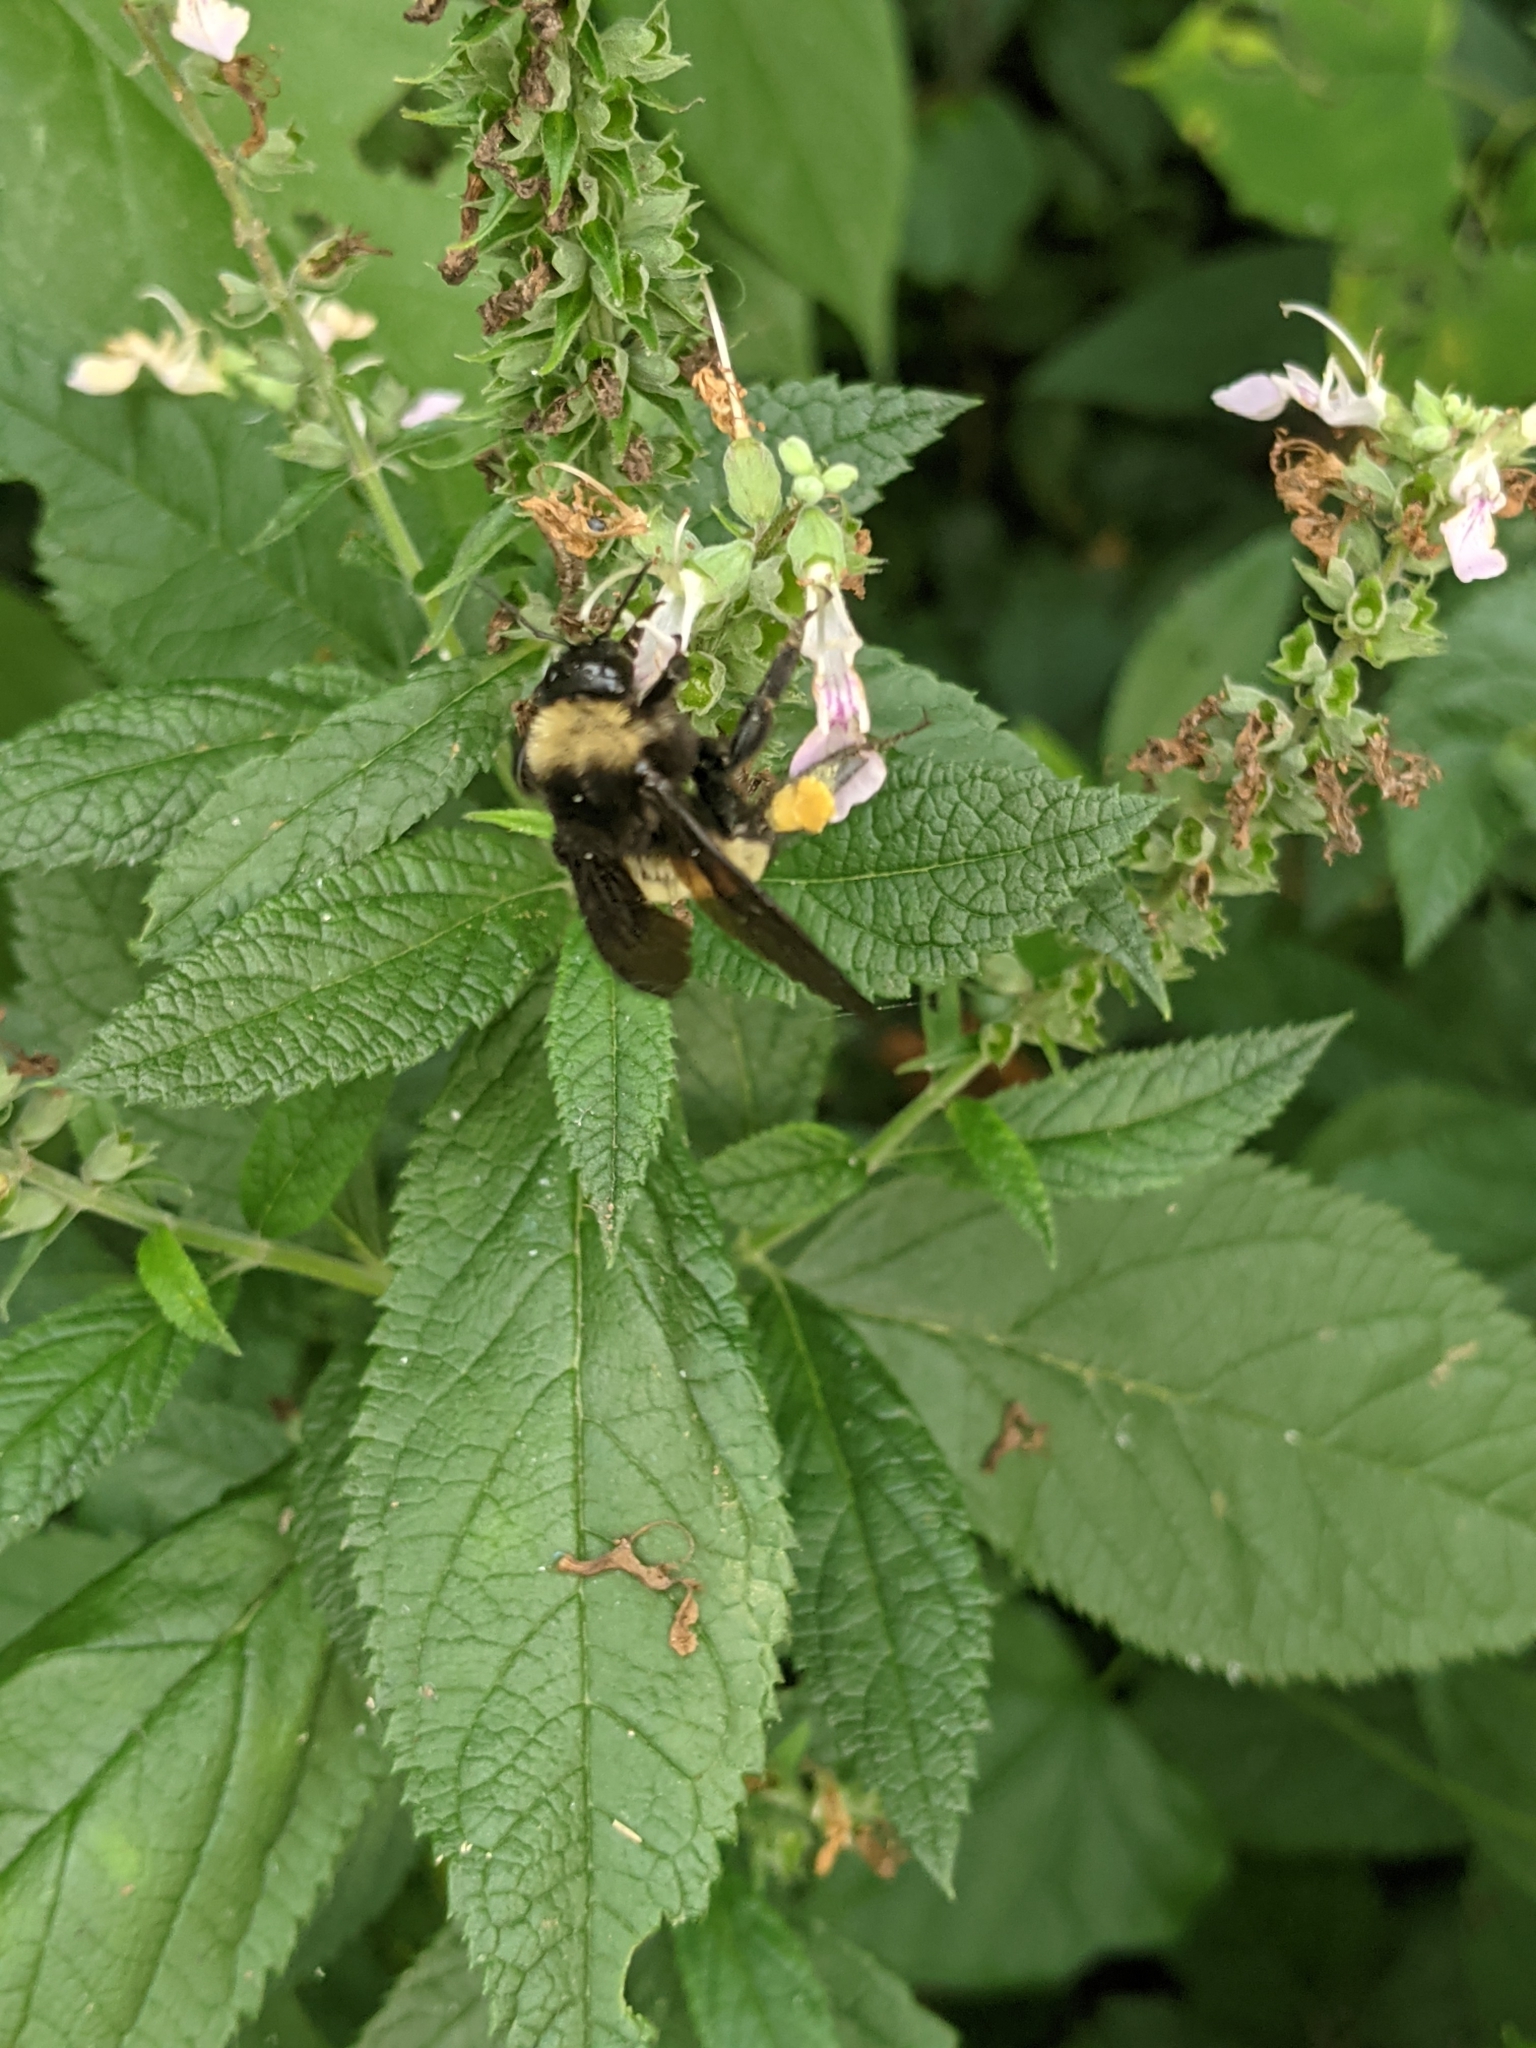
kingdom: Animalia
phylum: Arthropoda
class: Insecta
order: Hymenoptera
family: Apidae
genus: Bombus
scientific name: Bombus pensylvanicus
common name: Bumble bee
